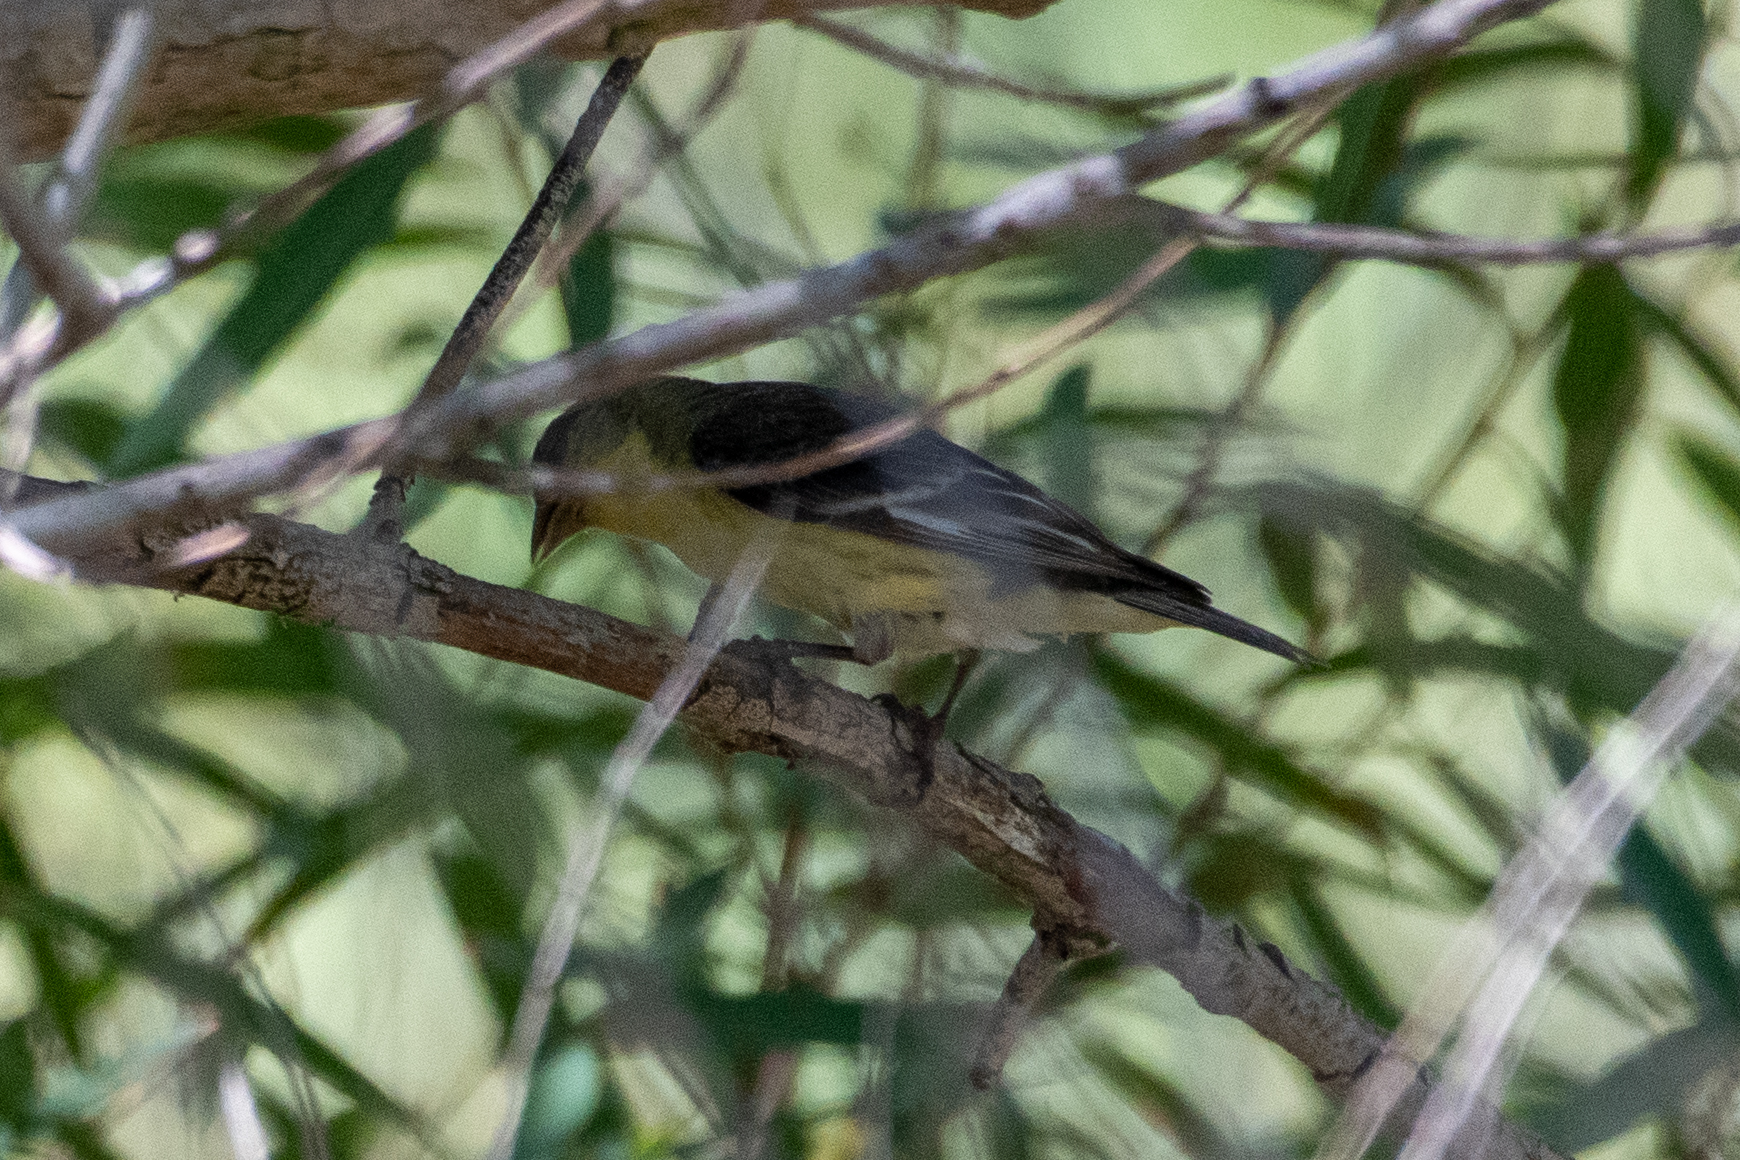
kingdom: Animalia
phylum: Chordata
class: Aves
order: Passeriformes
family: Fringillidae
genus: Spinus
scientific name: Spinus psaltria
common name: Lesser goldfinch
